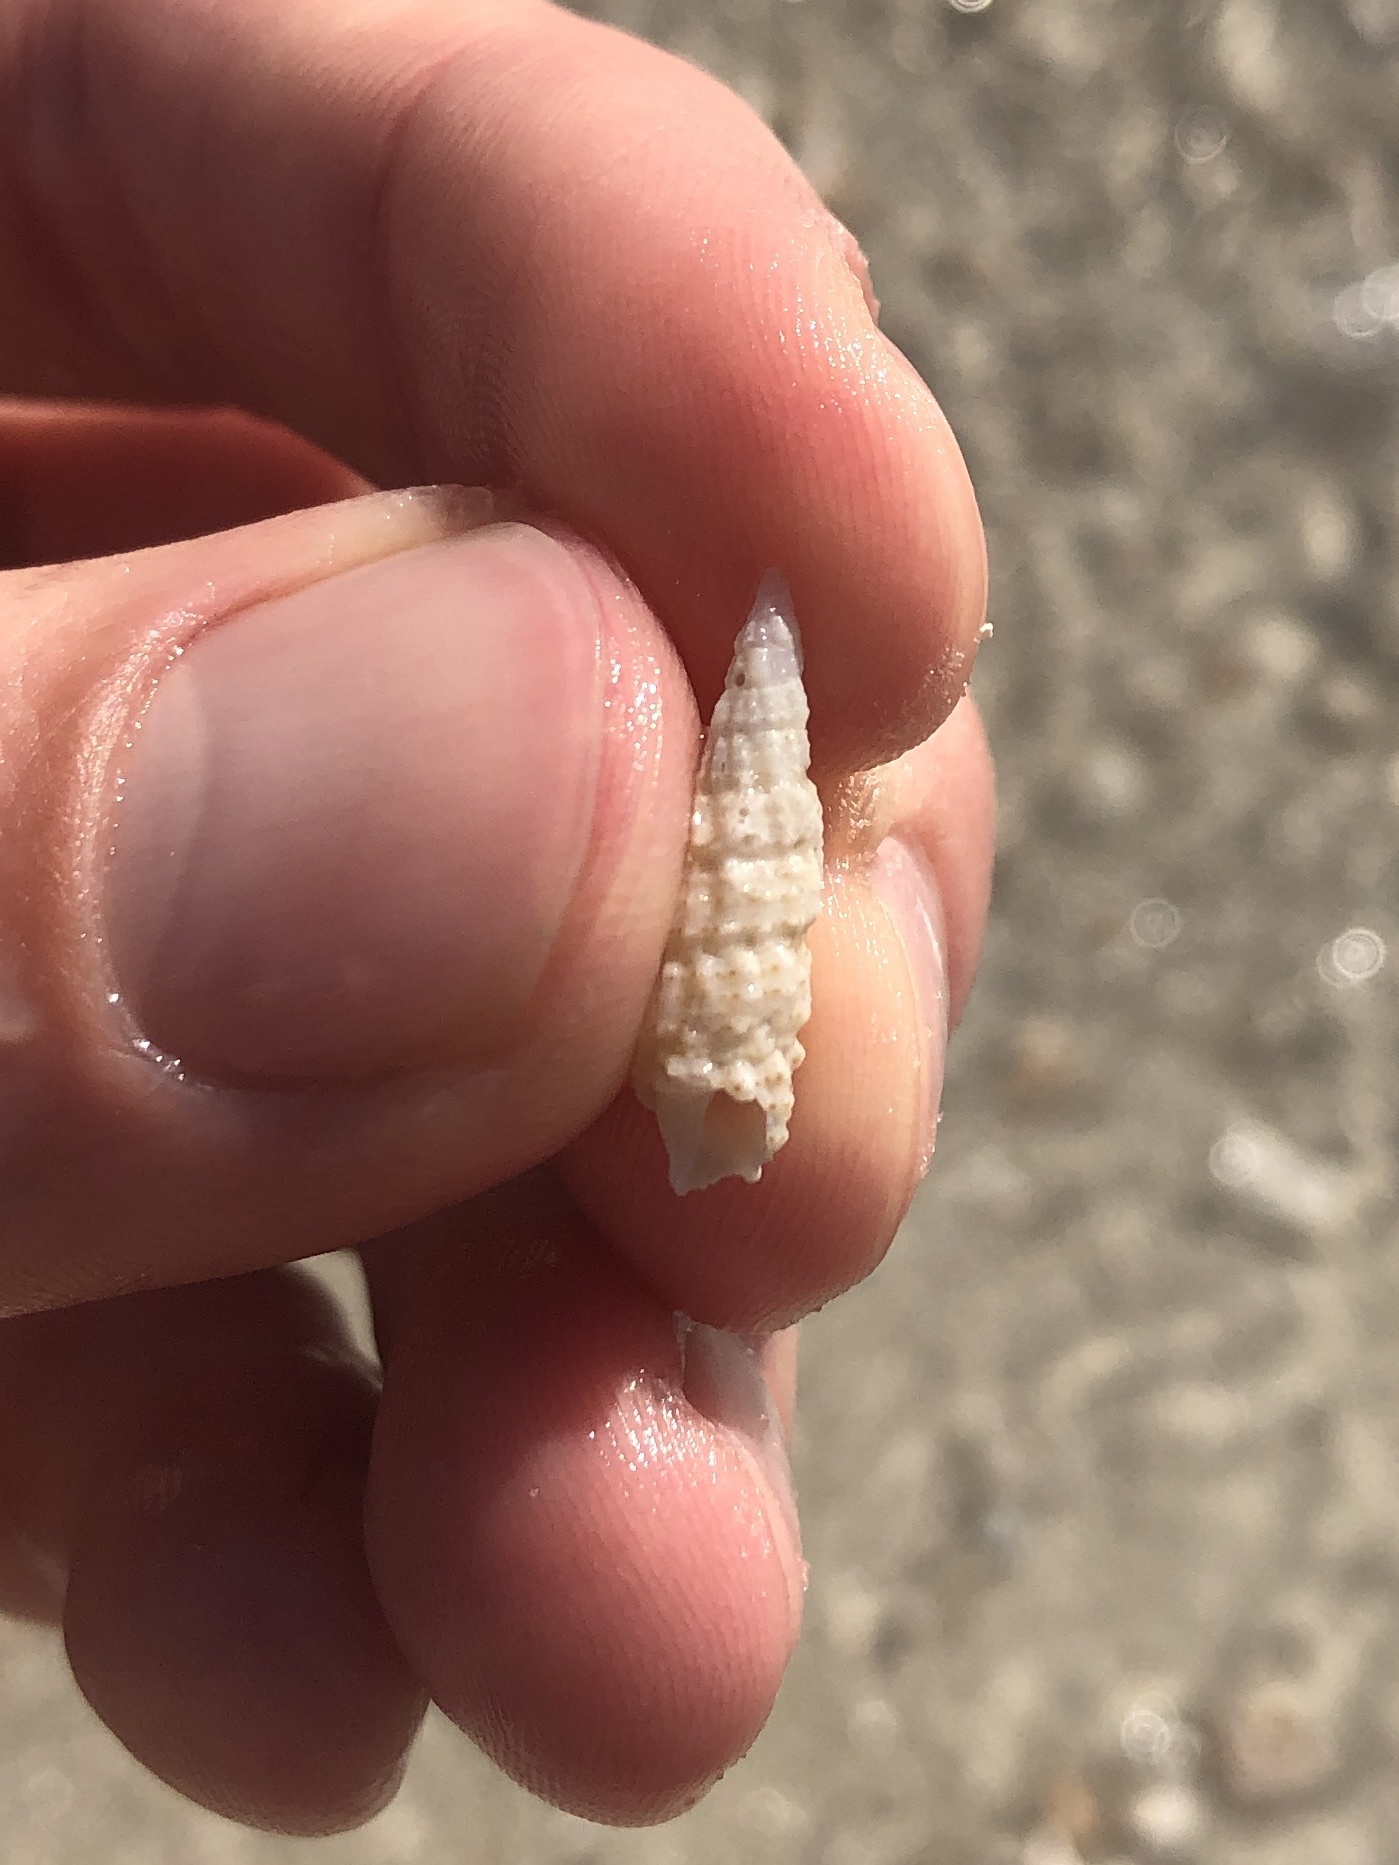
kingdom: Animalia
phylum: Mollusca
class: Gastropoda
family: Cerithiidae
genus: Cerithium
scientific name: Cerithium muscarum
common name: Fly-specked cerith
